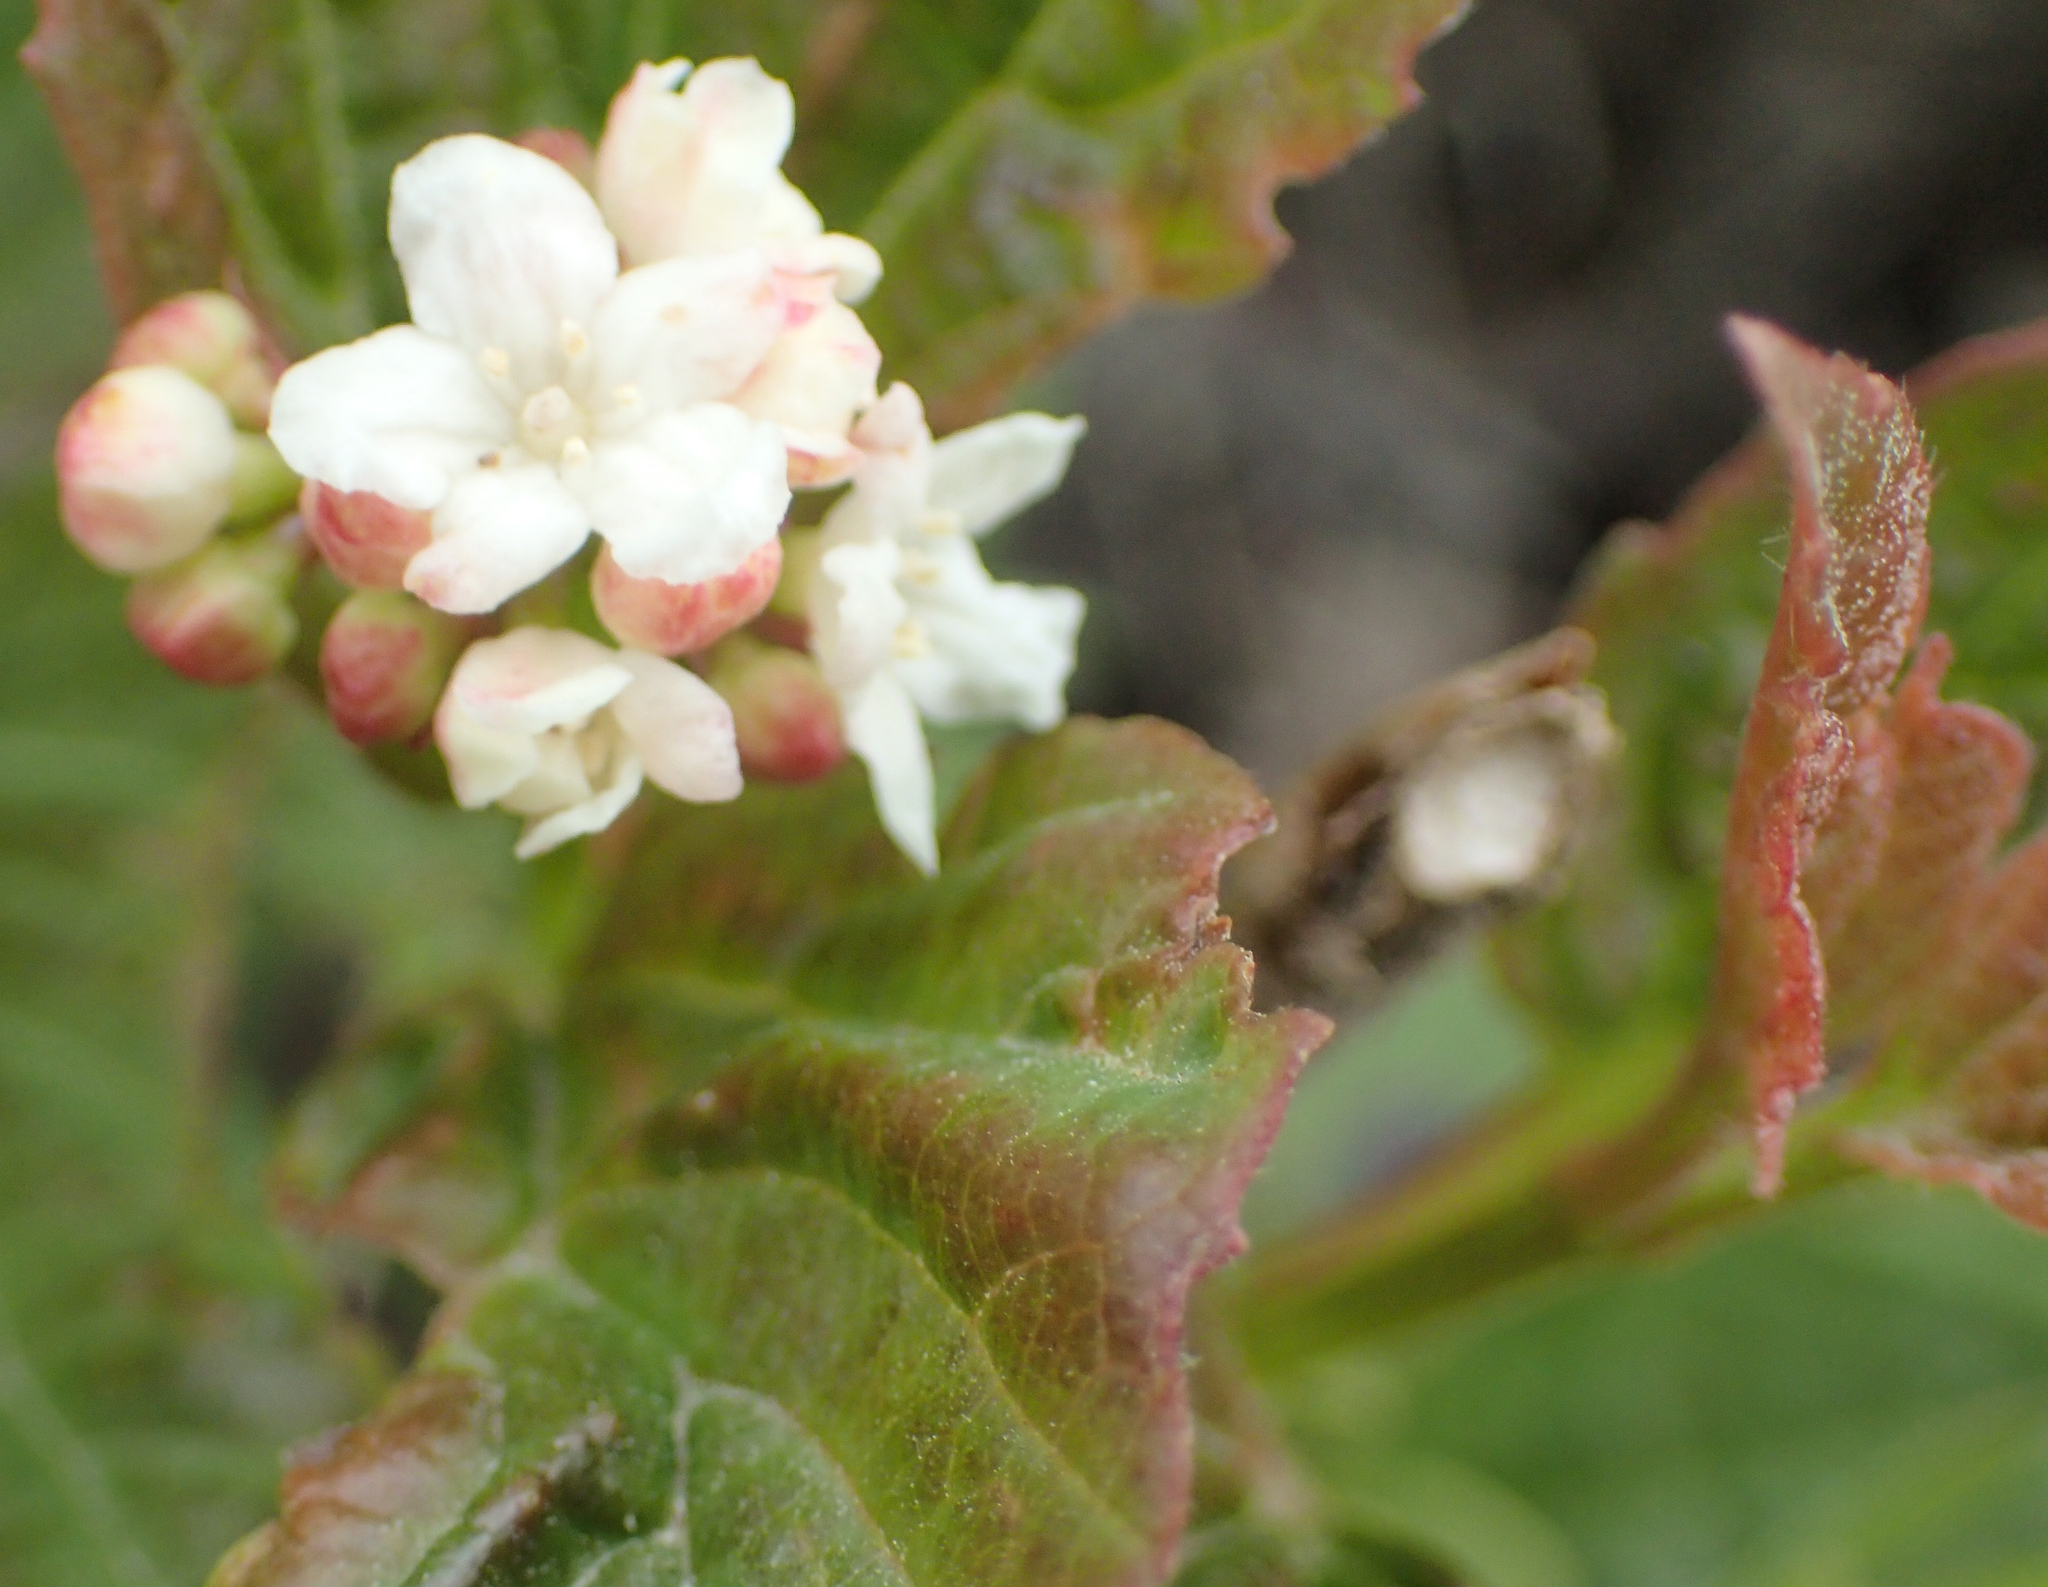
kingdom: Plantae
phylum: Tracheophyta
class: Magnoliopsida
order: Dipsacales
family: Viburnaceae
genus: Viburnum
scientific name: Viburnum edule
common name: Mooseberry
